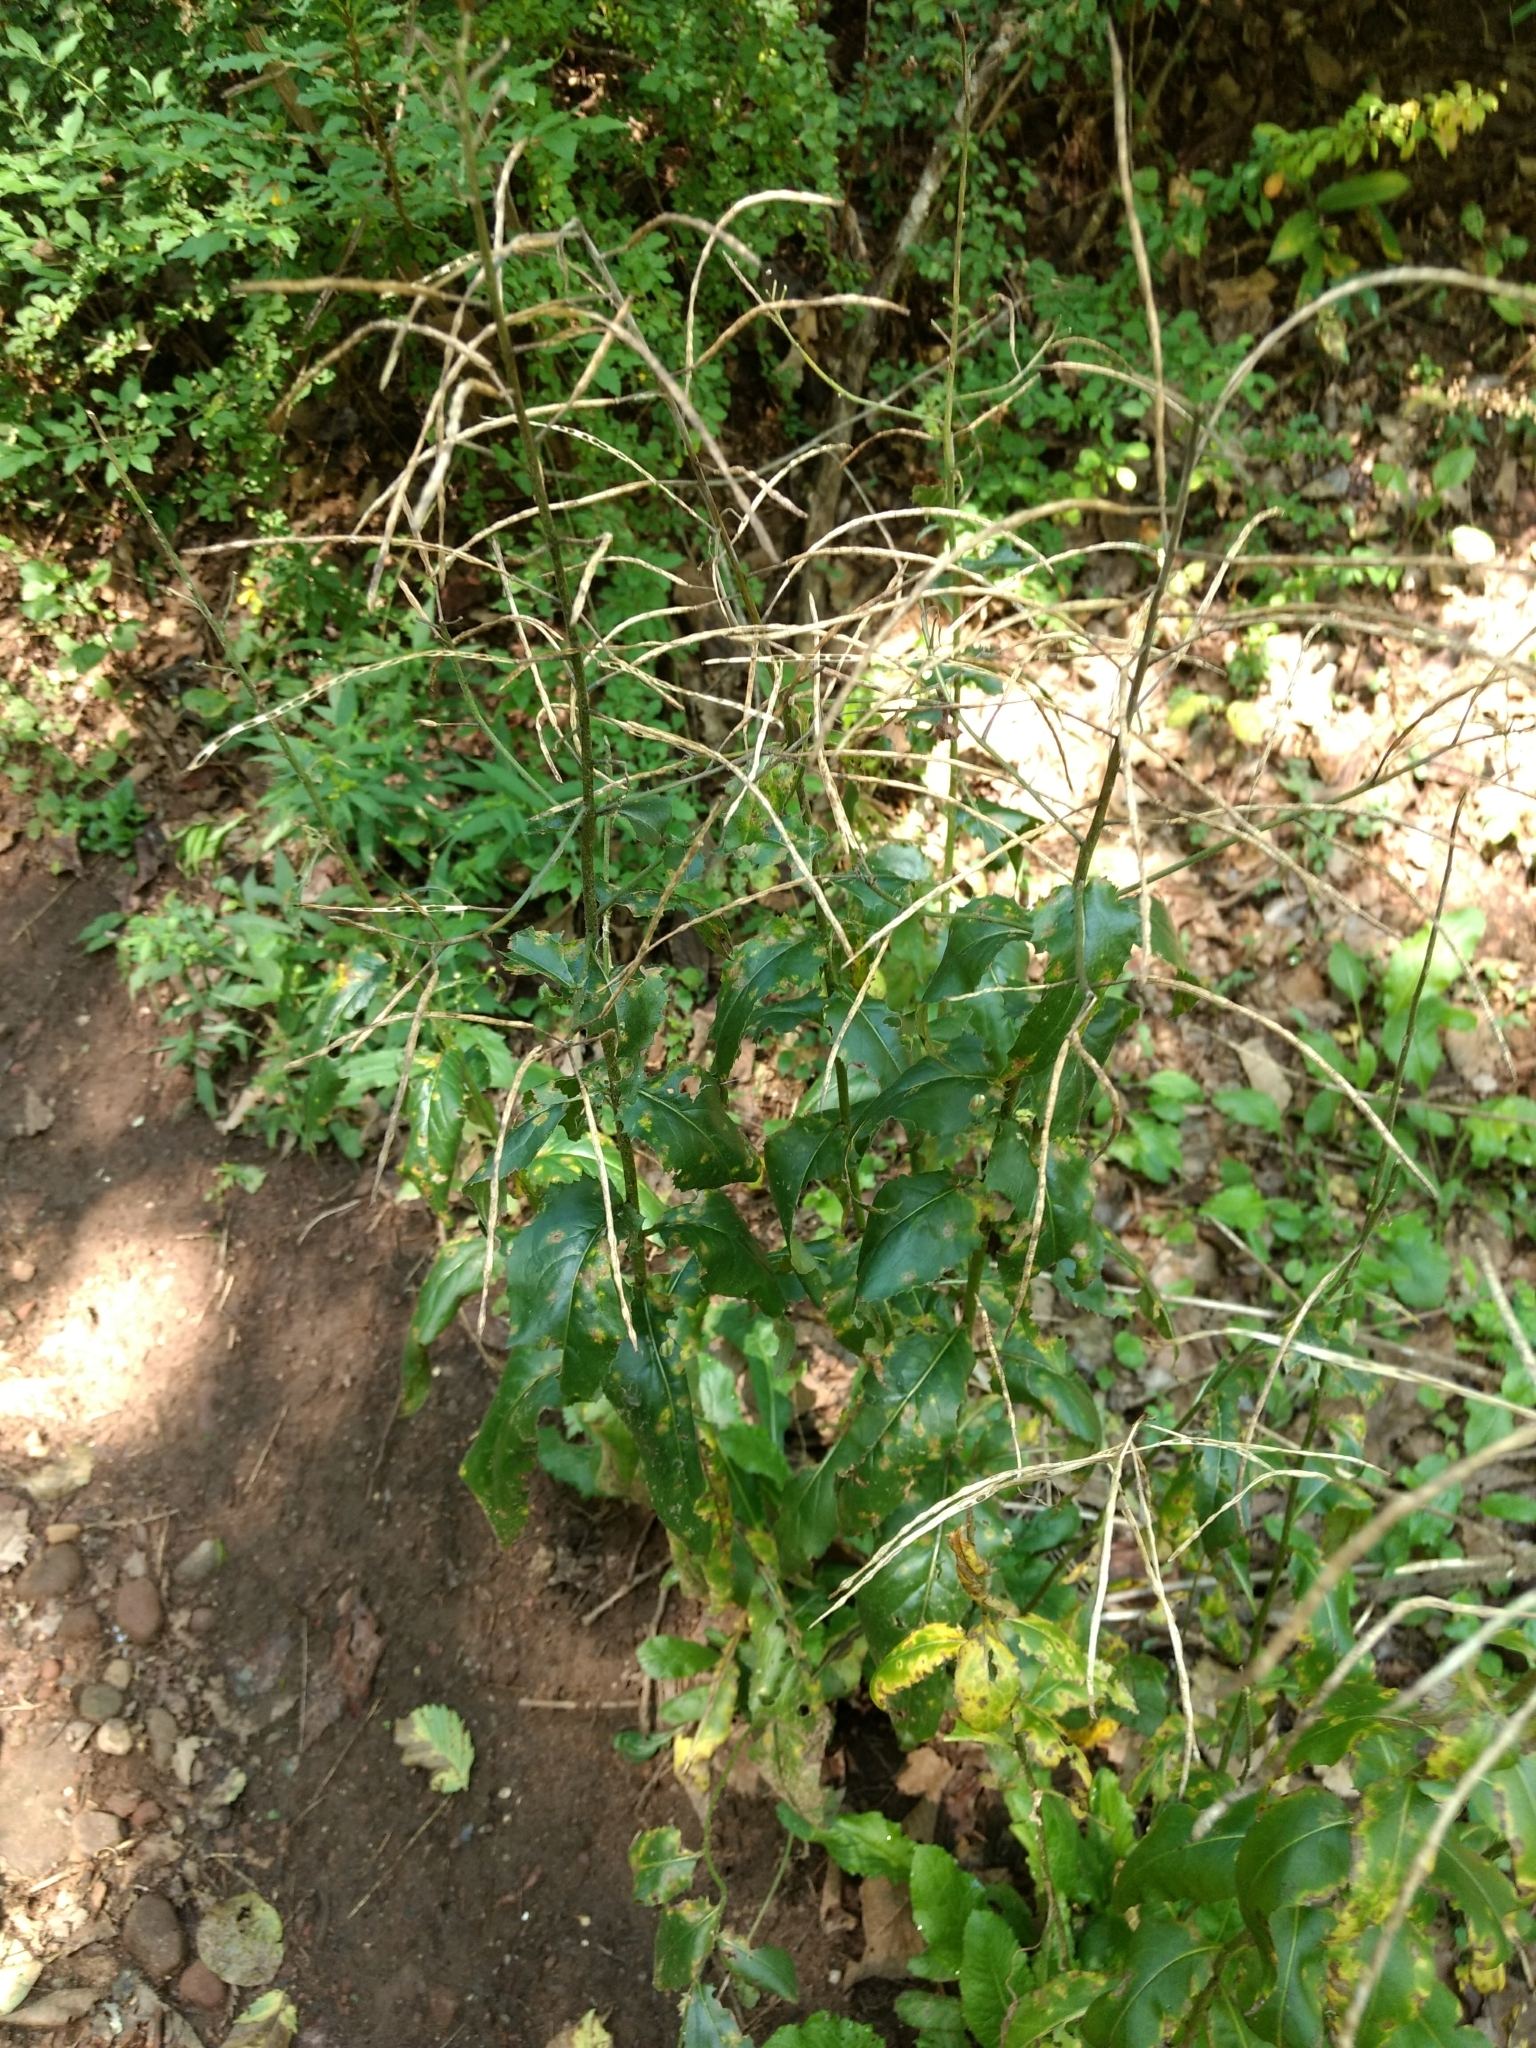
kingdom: Plantae
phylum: Tracheophyta
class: Magnoliopsida
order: Brassicales
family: Brassicaceae
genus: Hesperis
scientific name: Hesperis matronalis
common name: Dame's-violet
